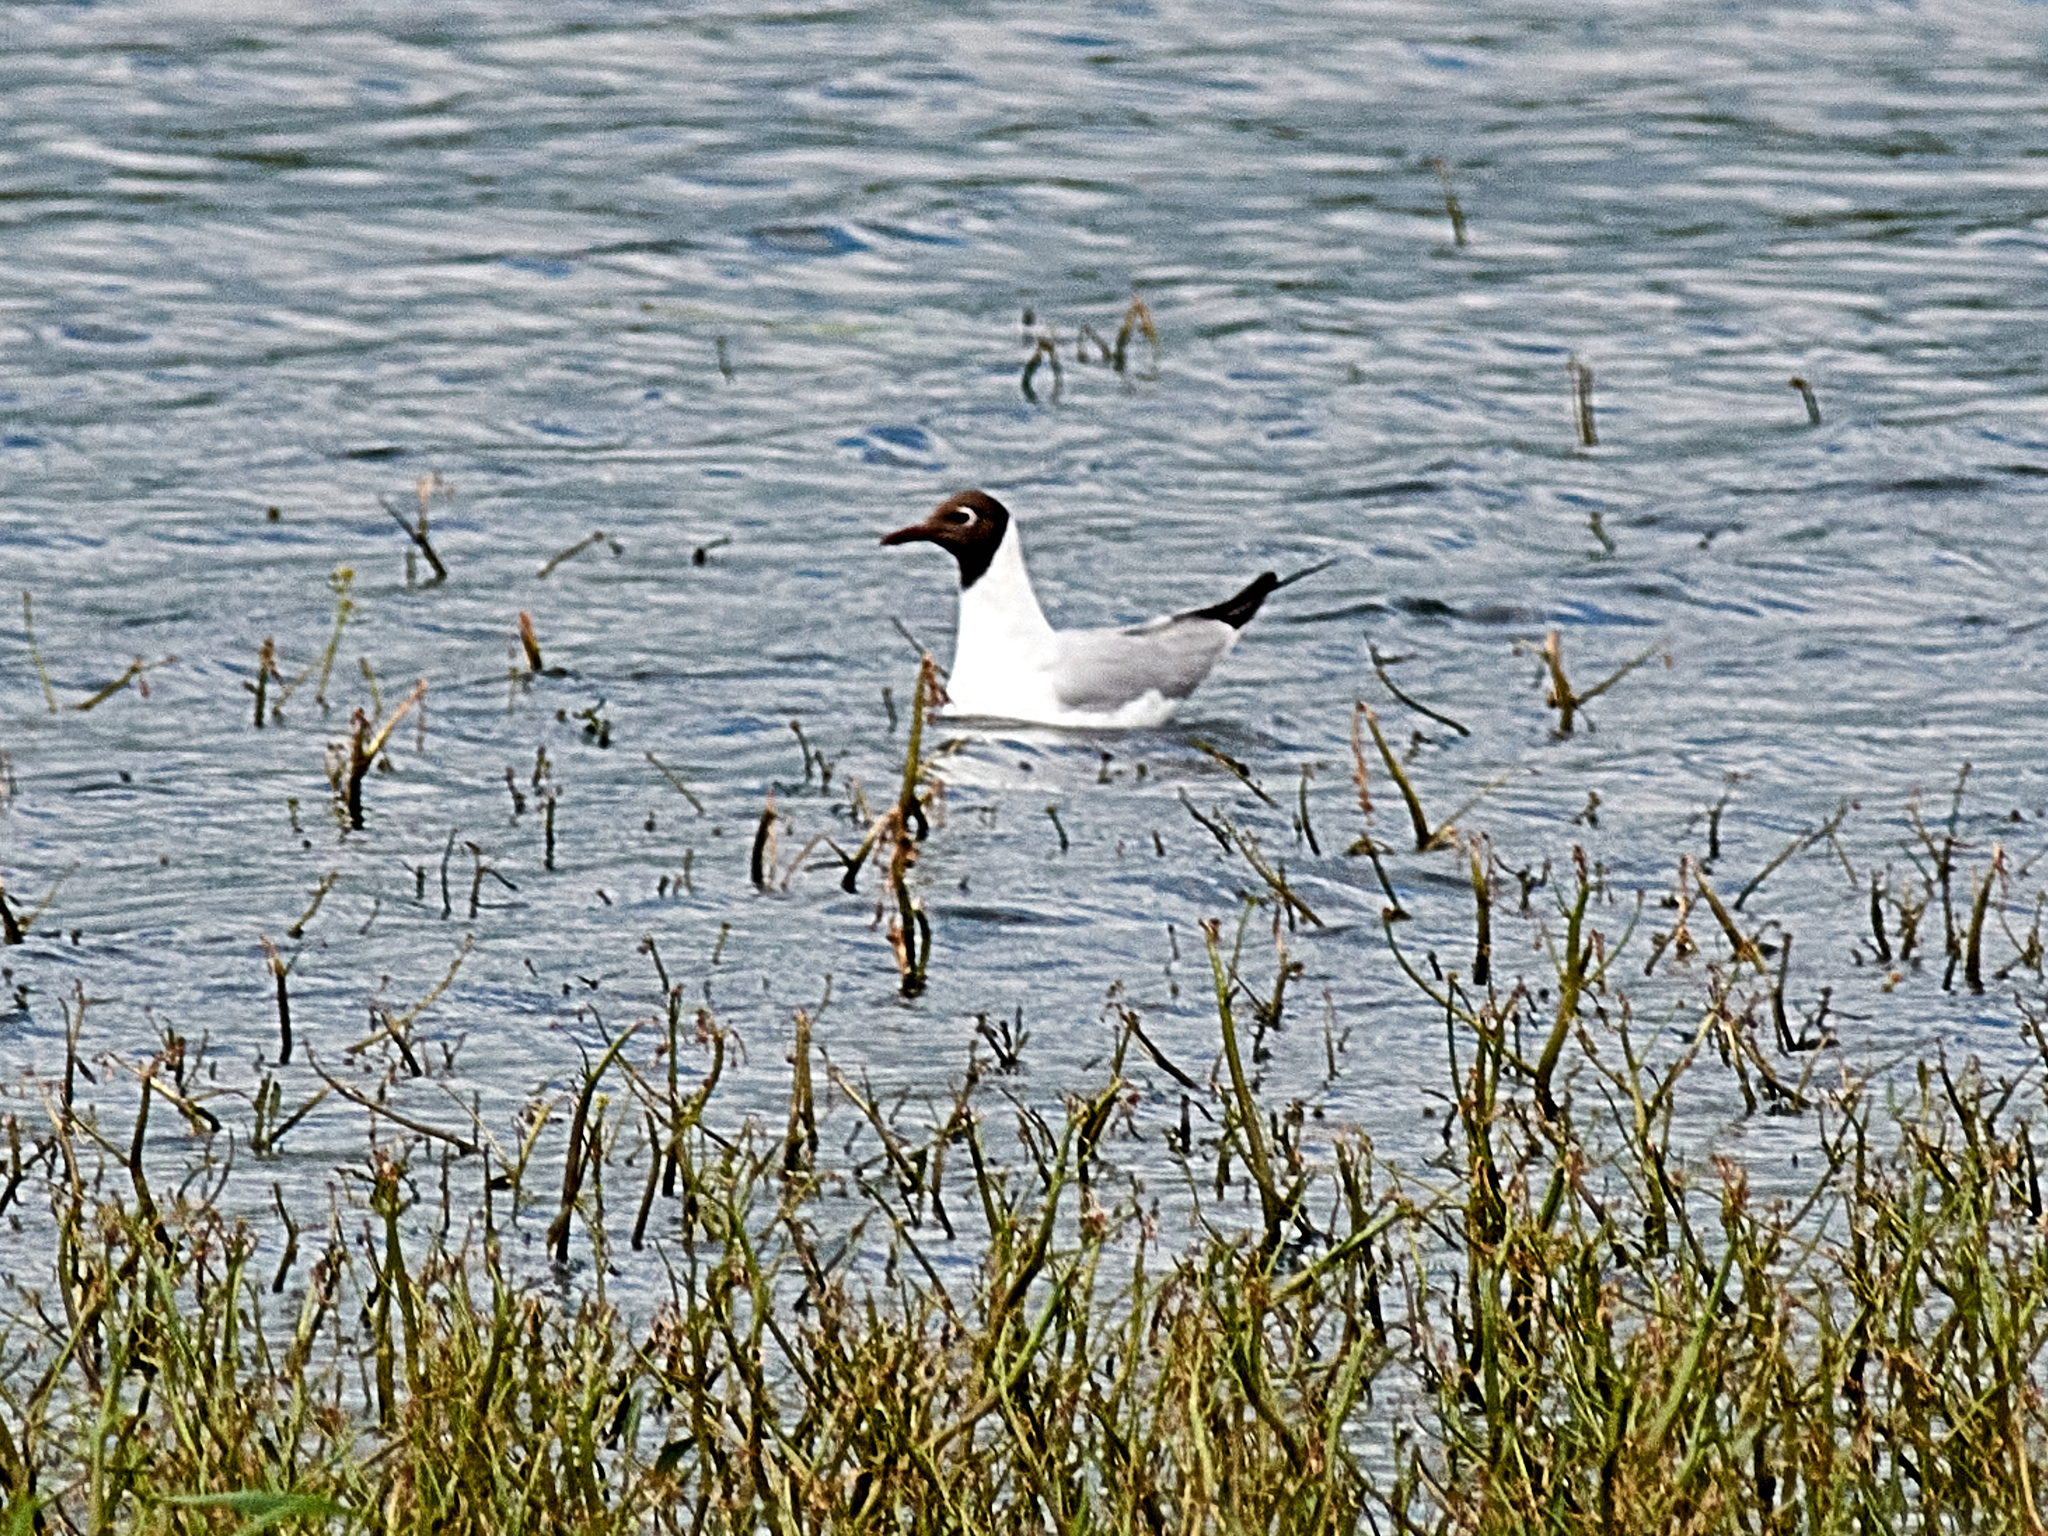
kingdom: Animalia
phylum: Chordata
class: Aves
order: Charadriiformes
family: Laridae
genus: Chroicocephalus
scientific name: Chroicocephalus ridibundus
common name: Black-headed gull
